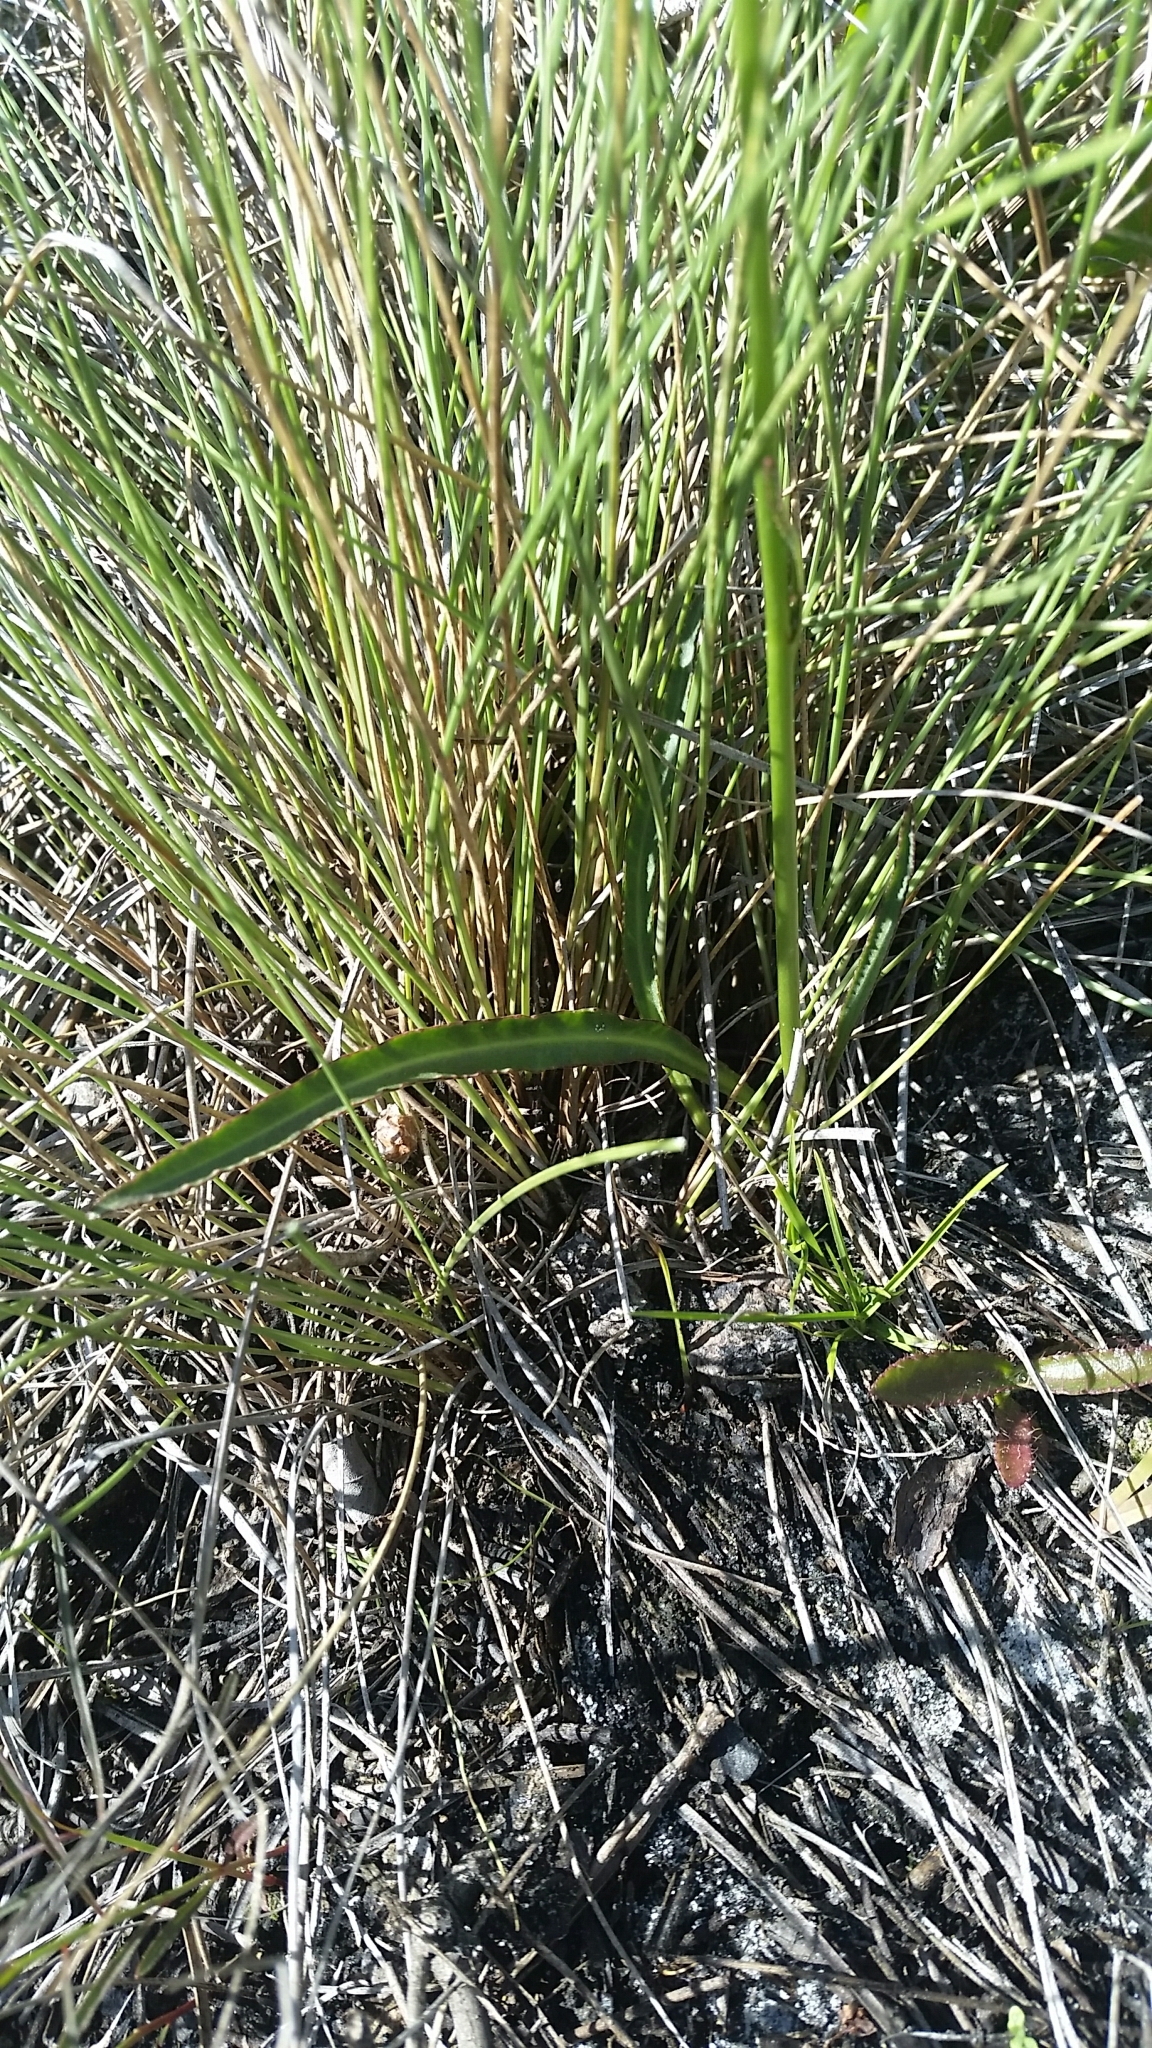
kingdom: Plantae
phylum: Tracheophyta
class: Magnoliopsida
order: Asterales
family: Campanulaceae
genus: Lobelia
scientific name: Lobelia paludosa
